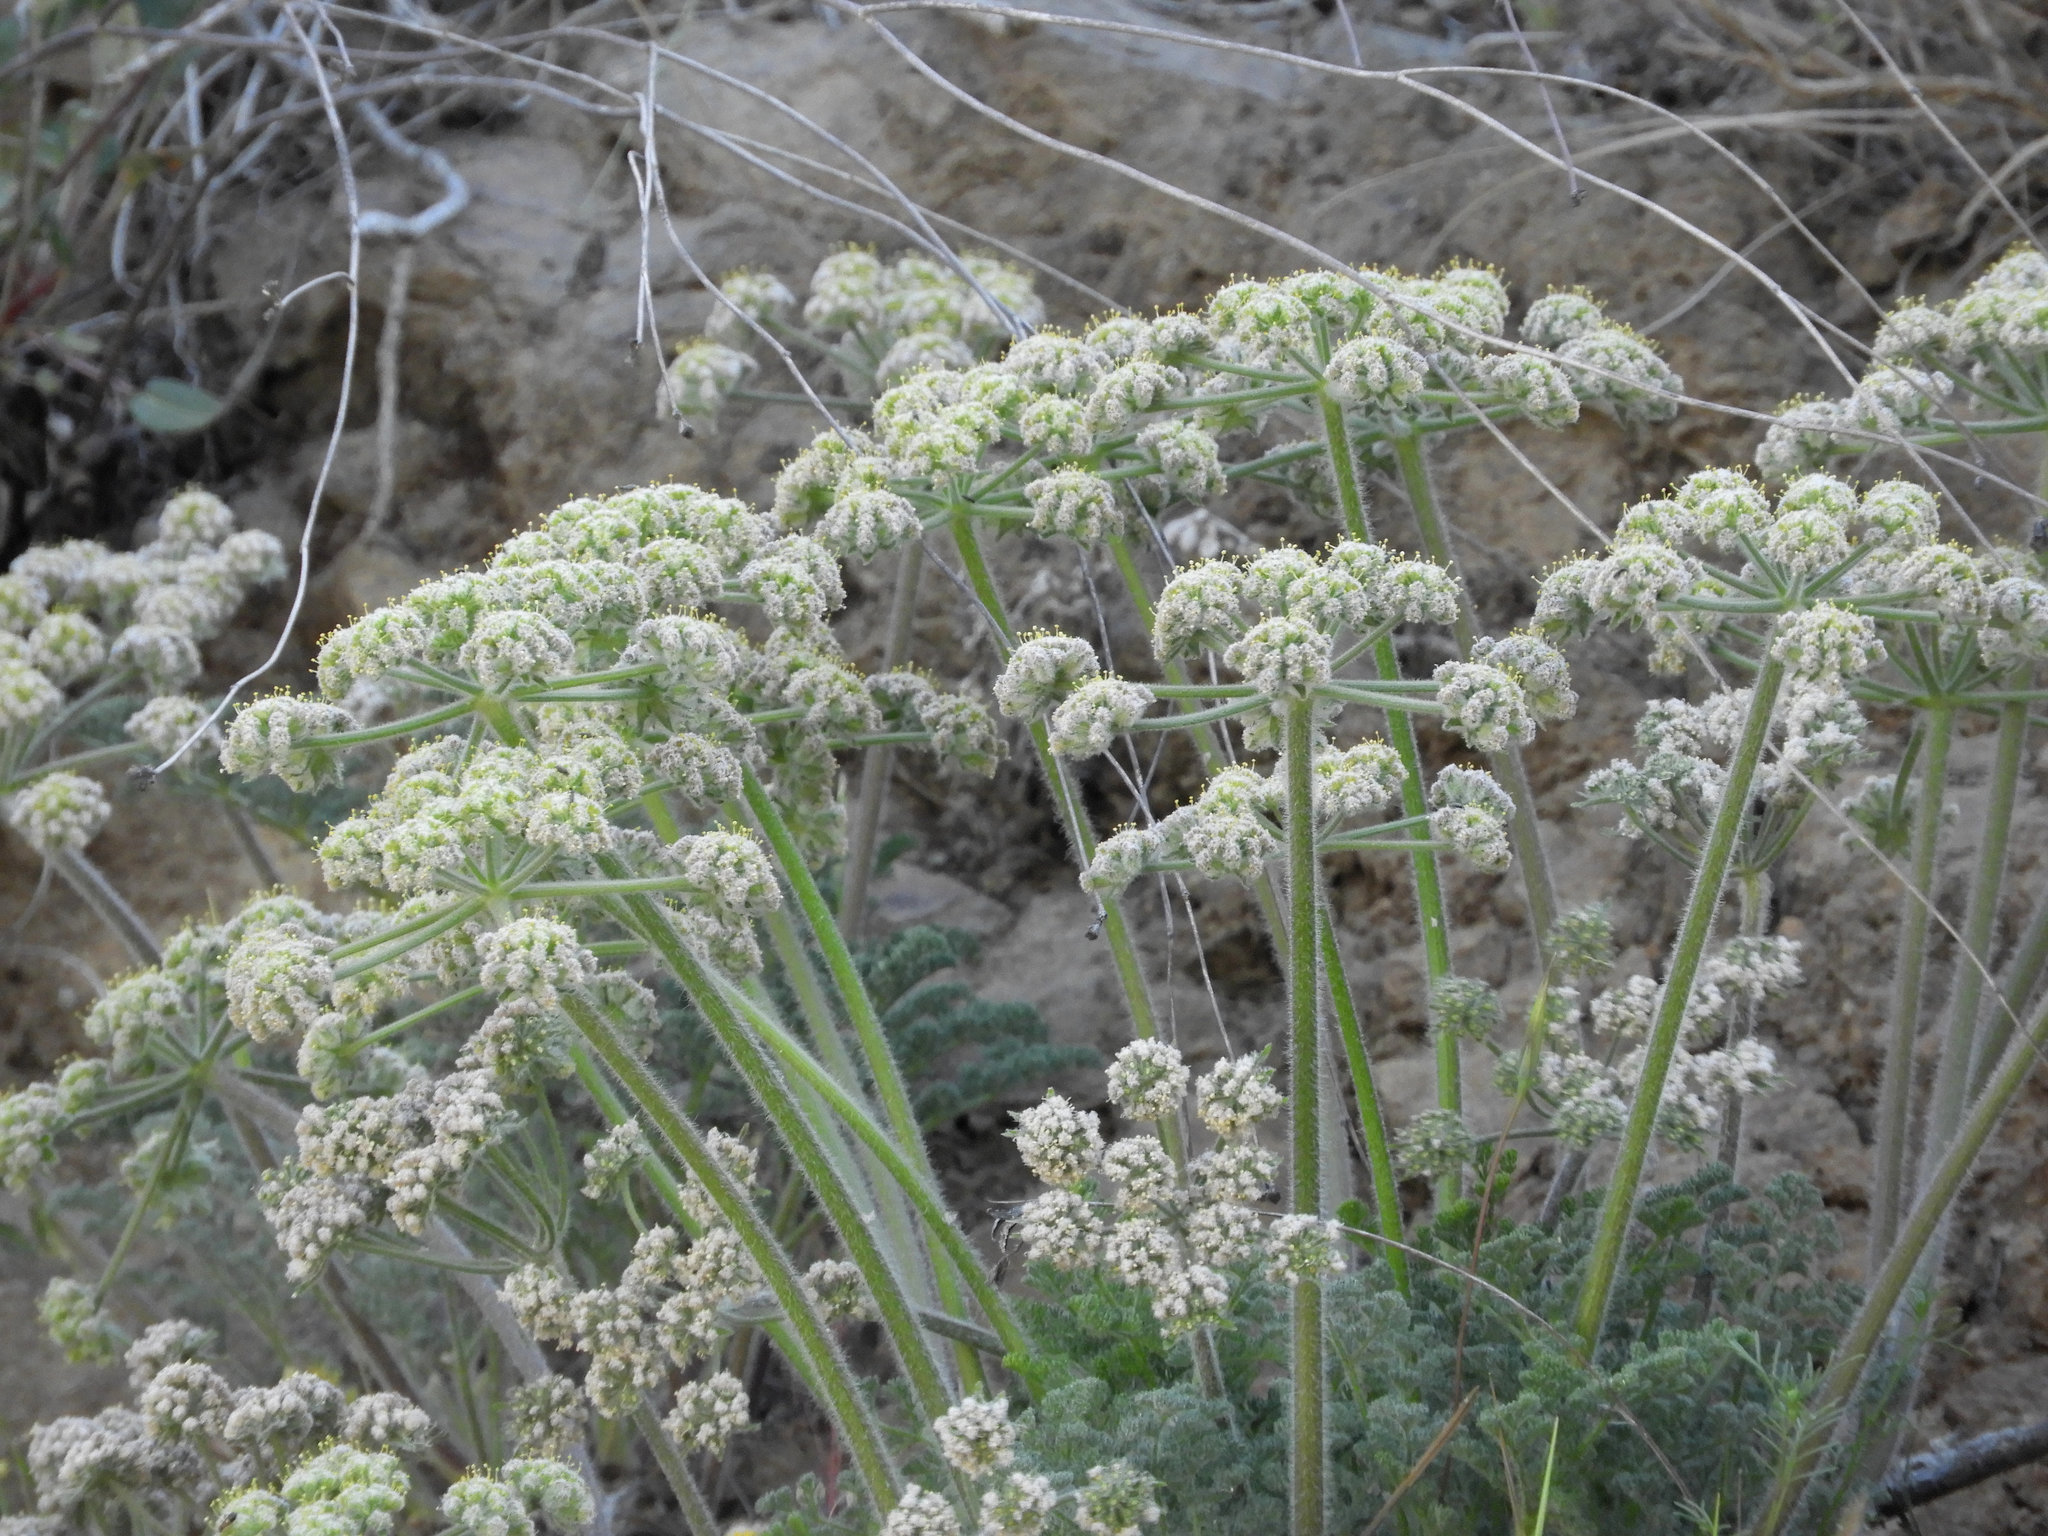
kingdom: Plantae
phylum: Tracheophyta
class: Magnoliopsida
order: Apiales
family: Apiaceae
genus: Lomatium
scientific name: Lomatium dasycarpum
